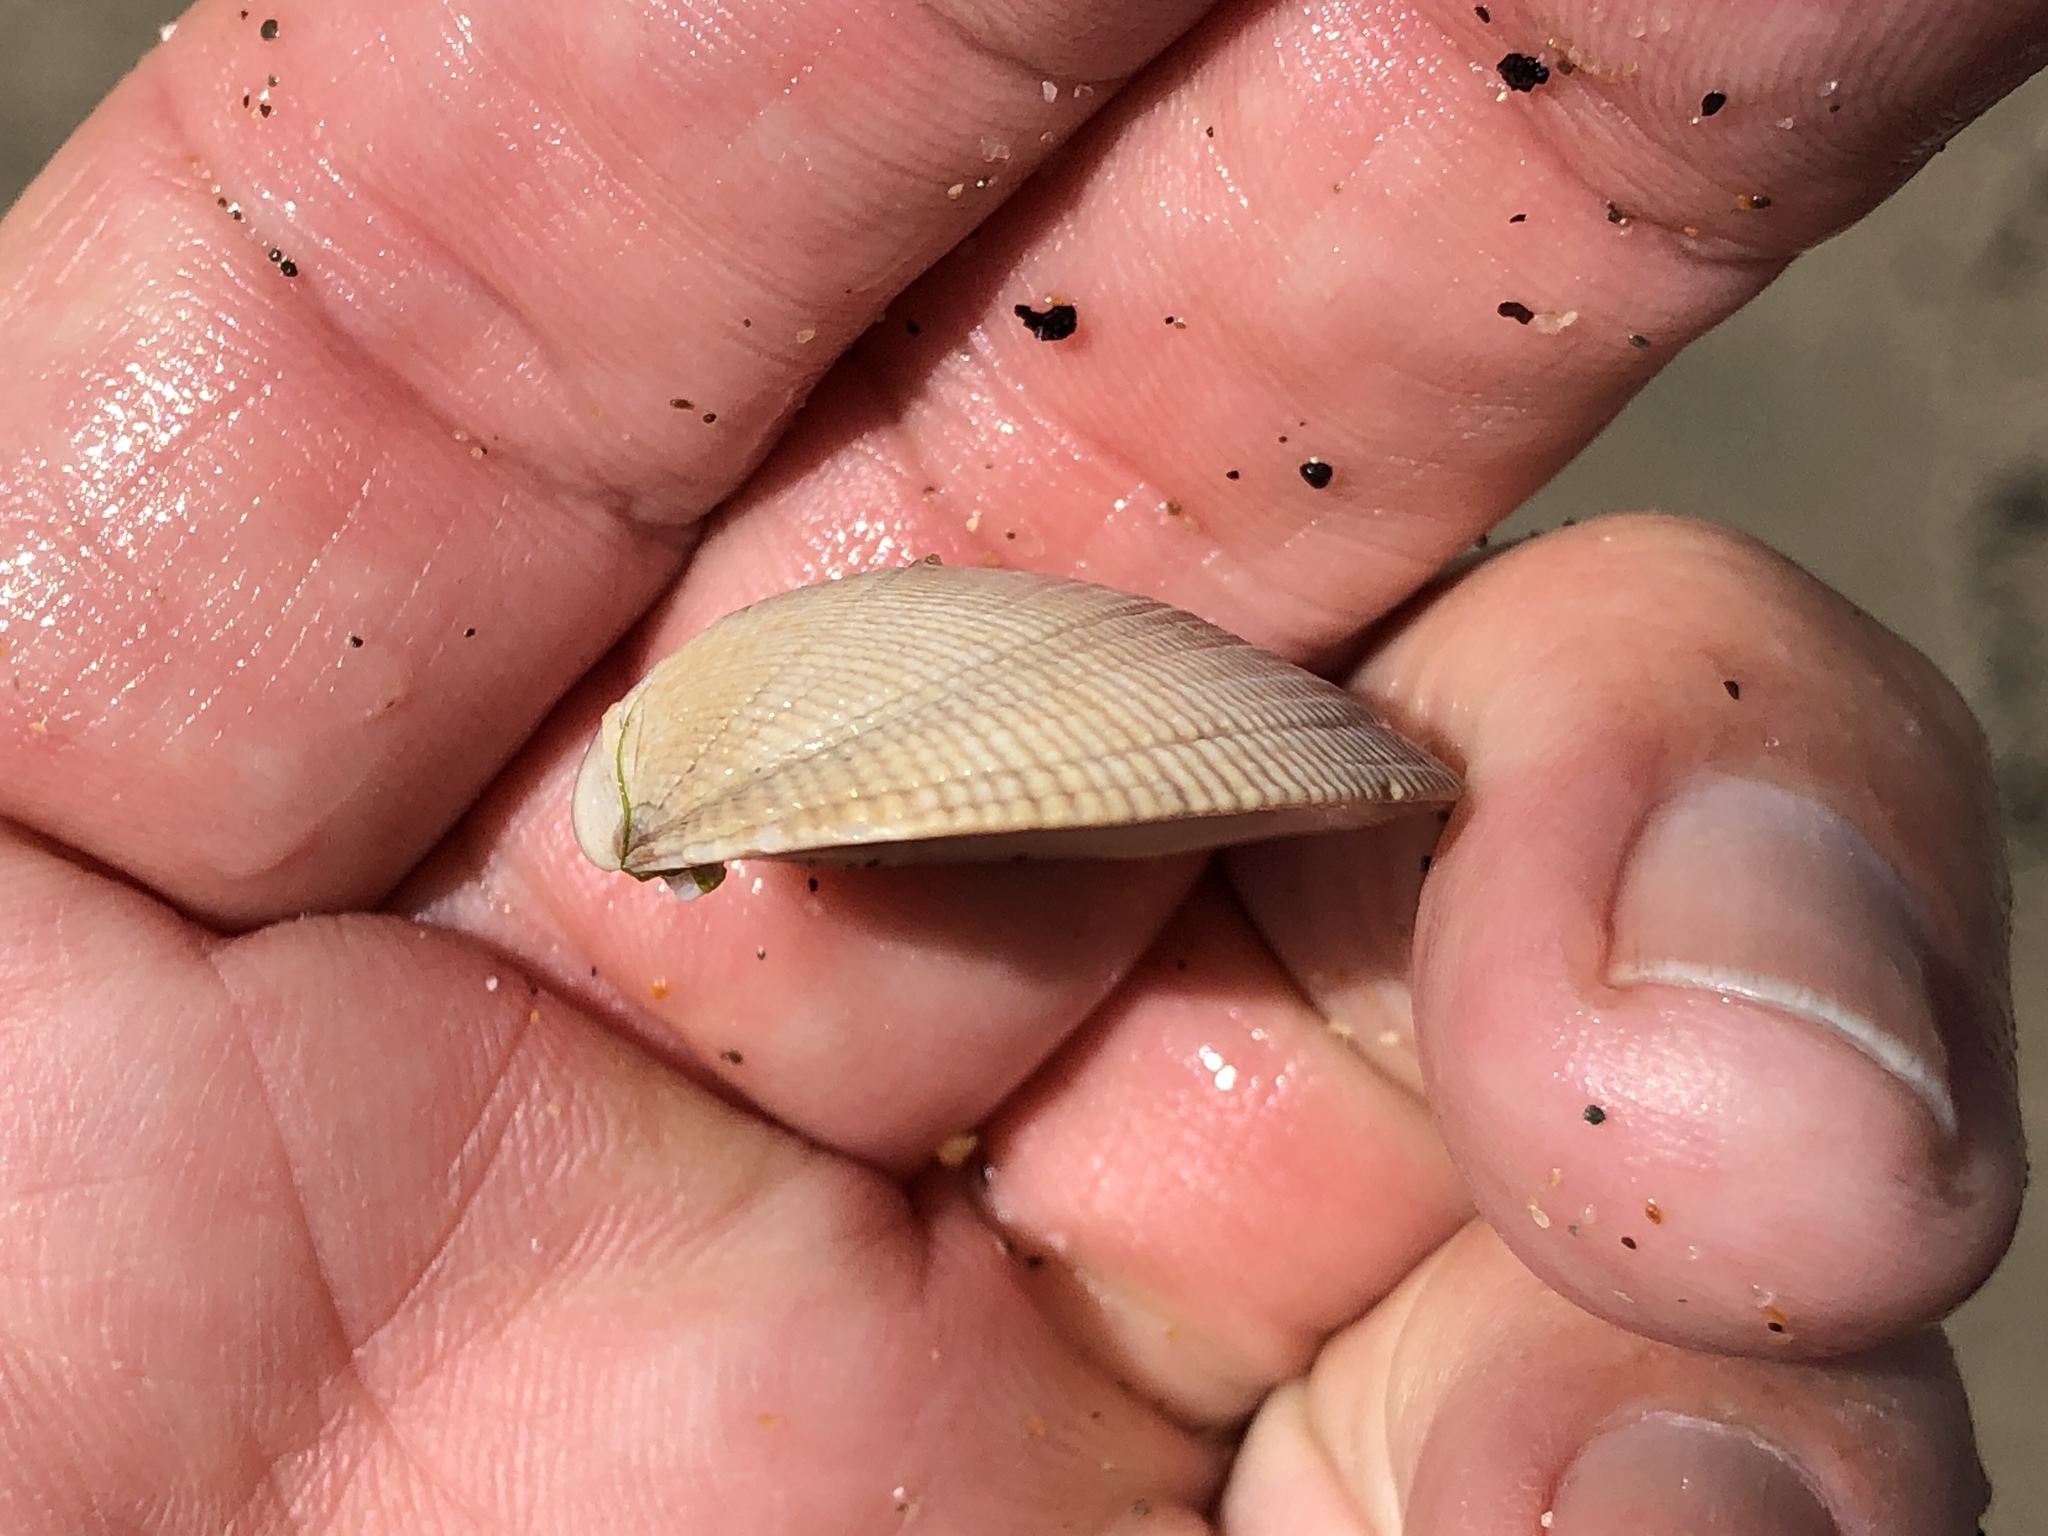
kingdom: Animalia
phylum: Mollusca
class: Bivalvia
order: Venerida
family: Veneridae
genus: Leukoma
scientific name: Leukoma staminea
